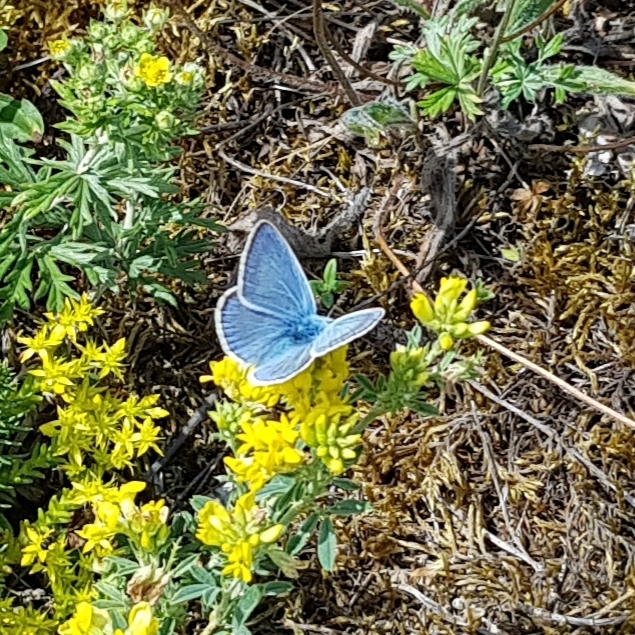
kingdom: Animalia
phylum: Arthropoda
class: Insecta
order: Lepidoptera
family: Lycaenidae
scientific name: Lycaenidae
